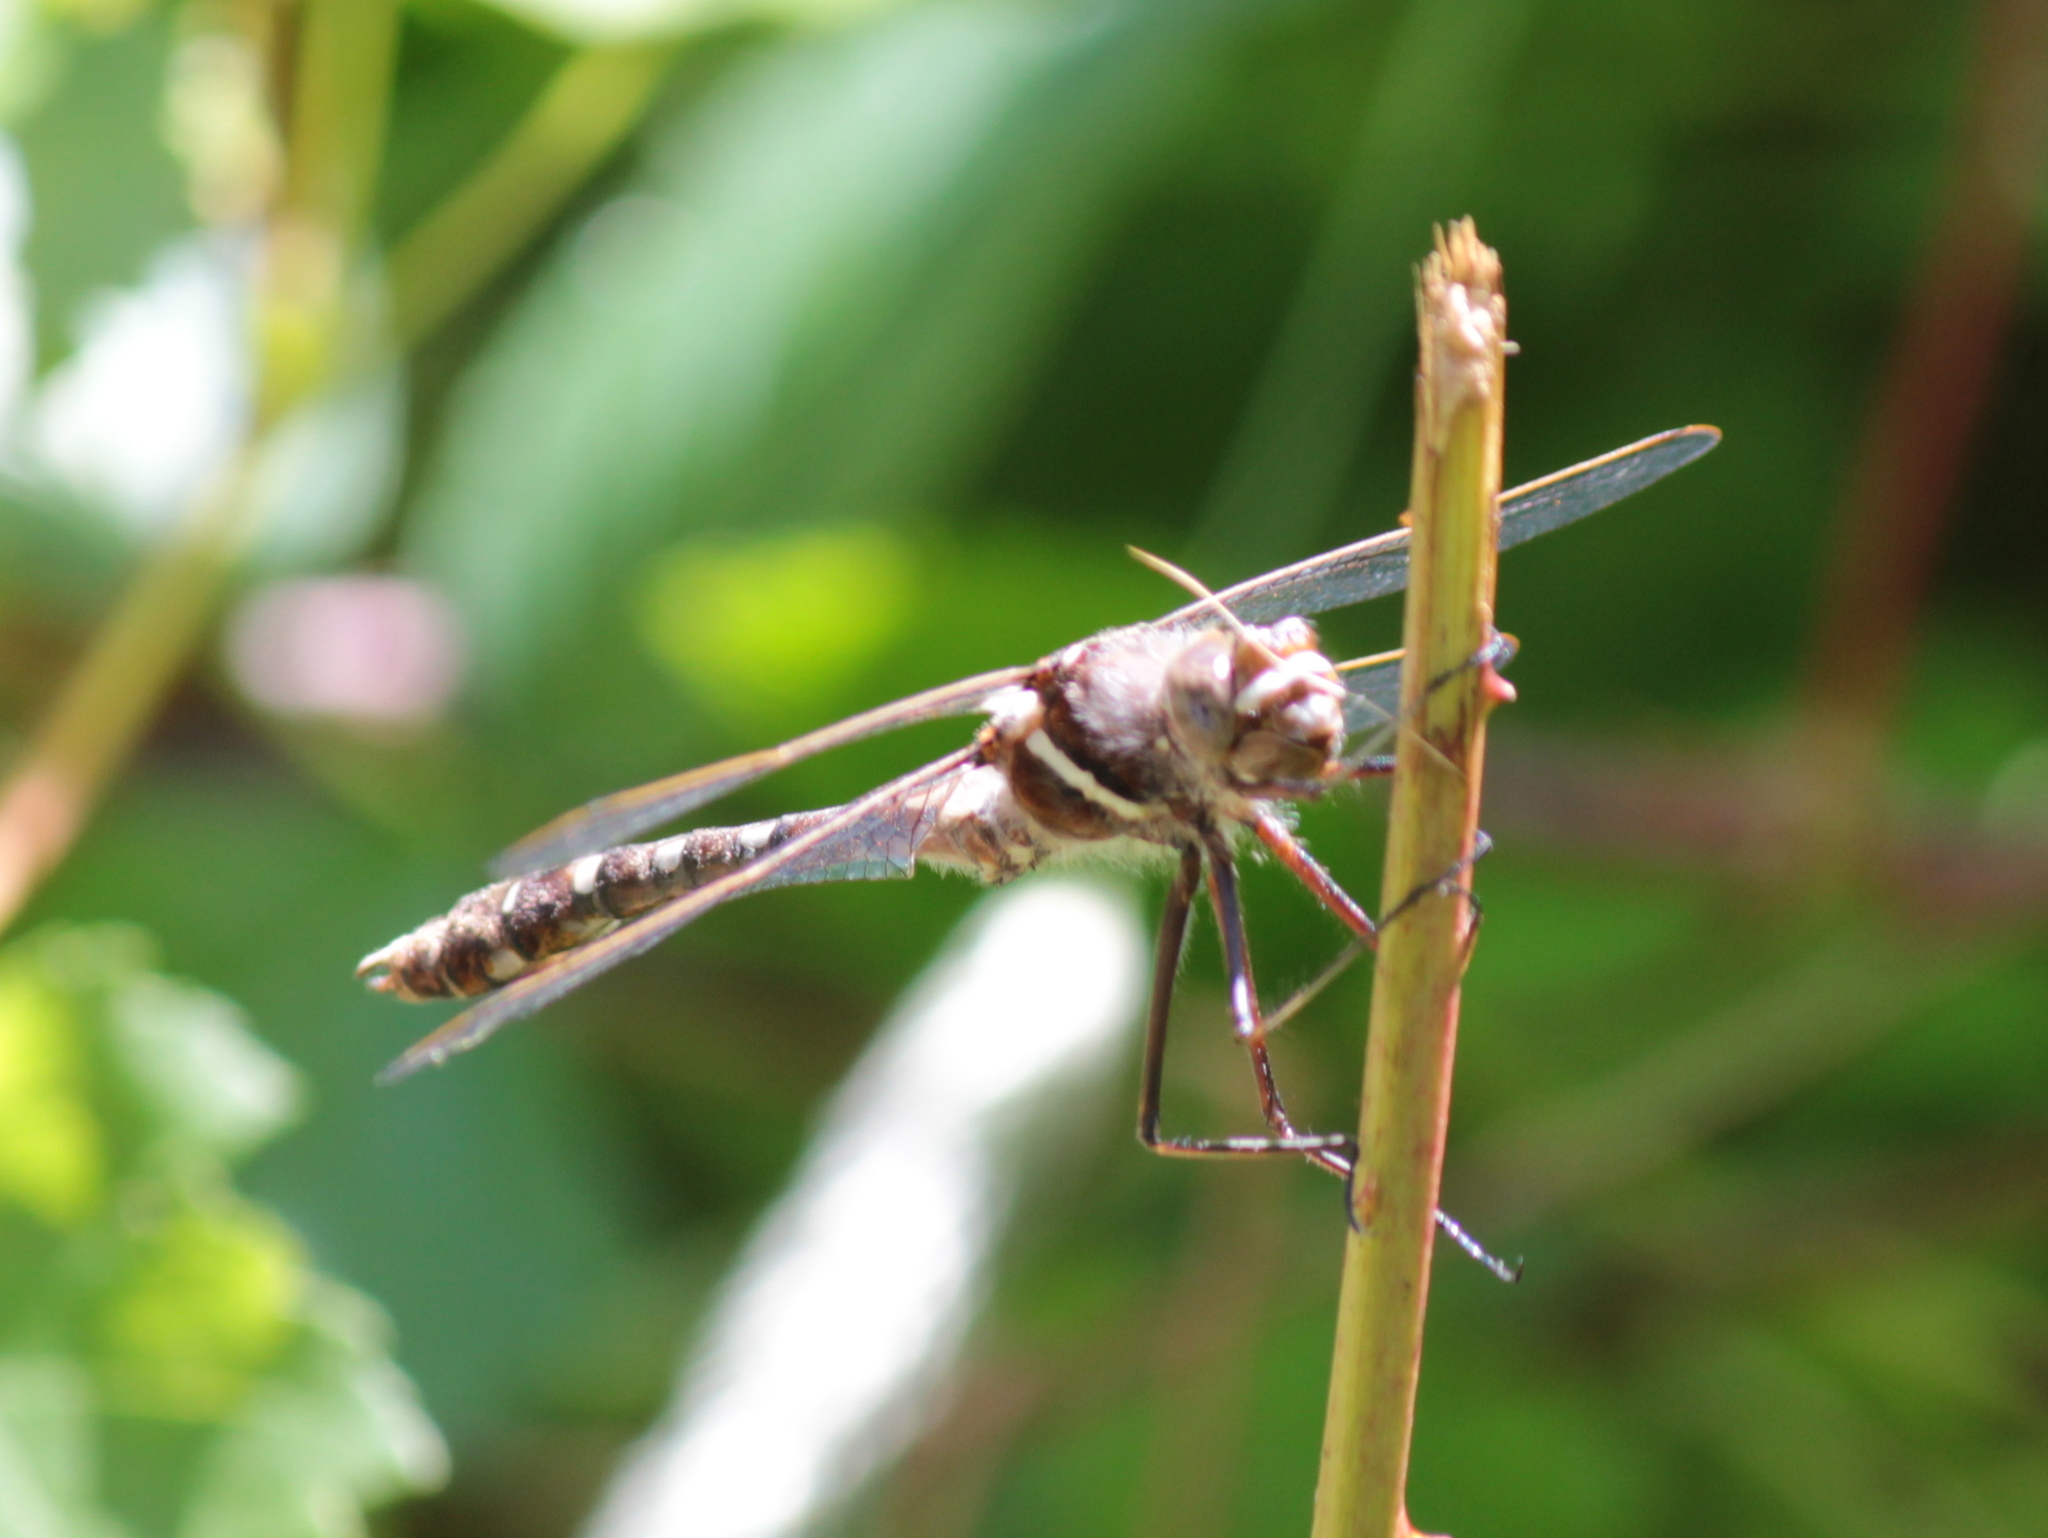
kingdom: Animalia
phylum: Arthropoda
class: Insecta
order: Odonata
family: Macromiidae
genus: Didymops
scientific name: Didymops transversa
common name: Stream cruiser
